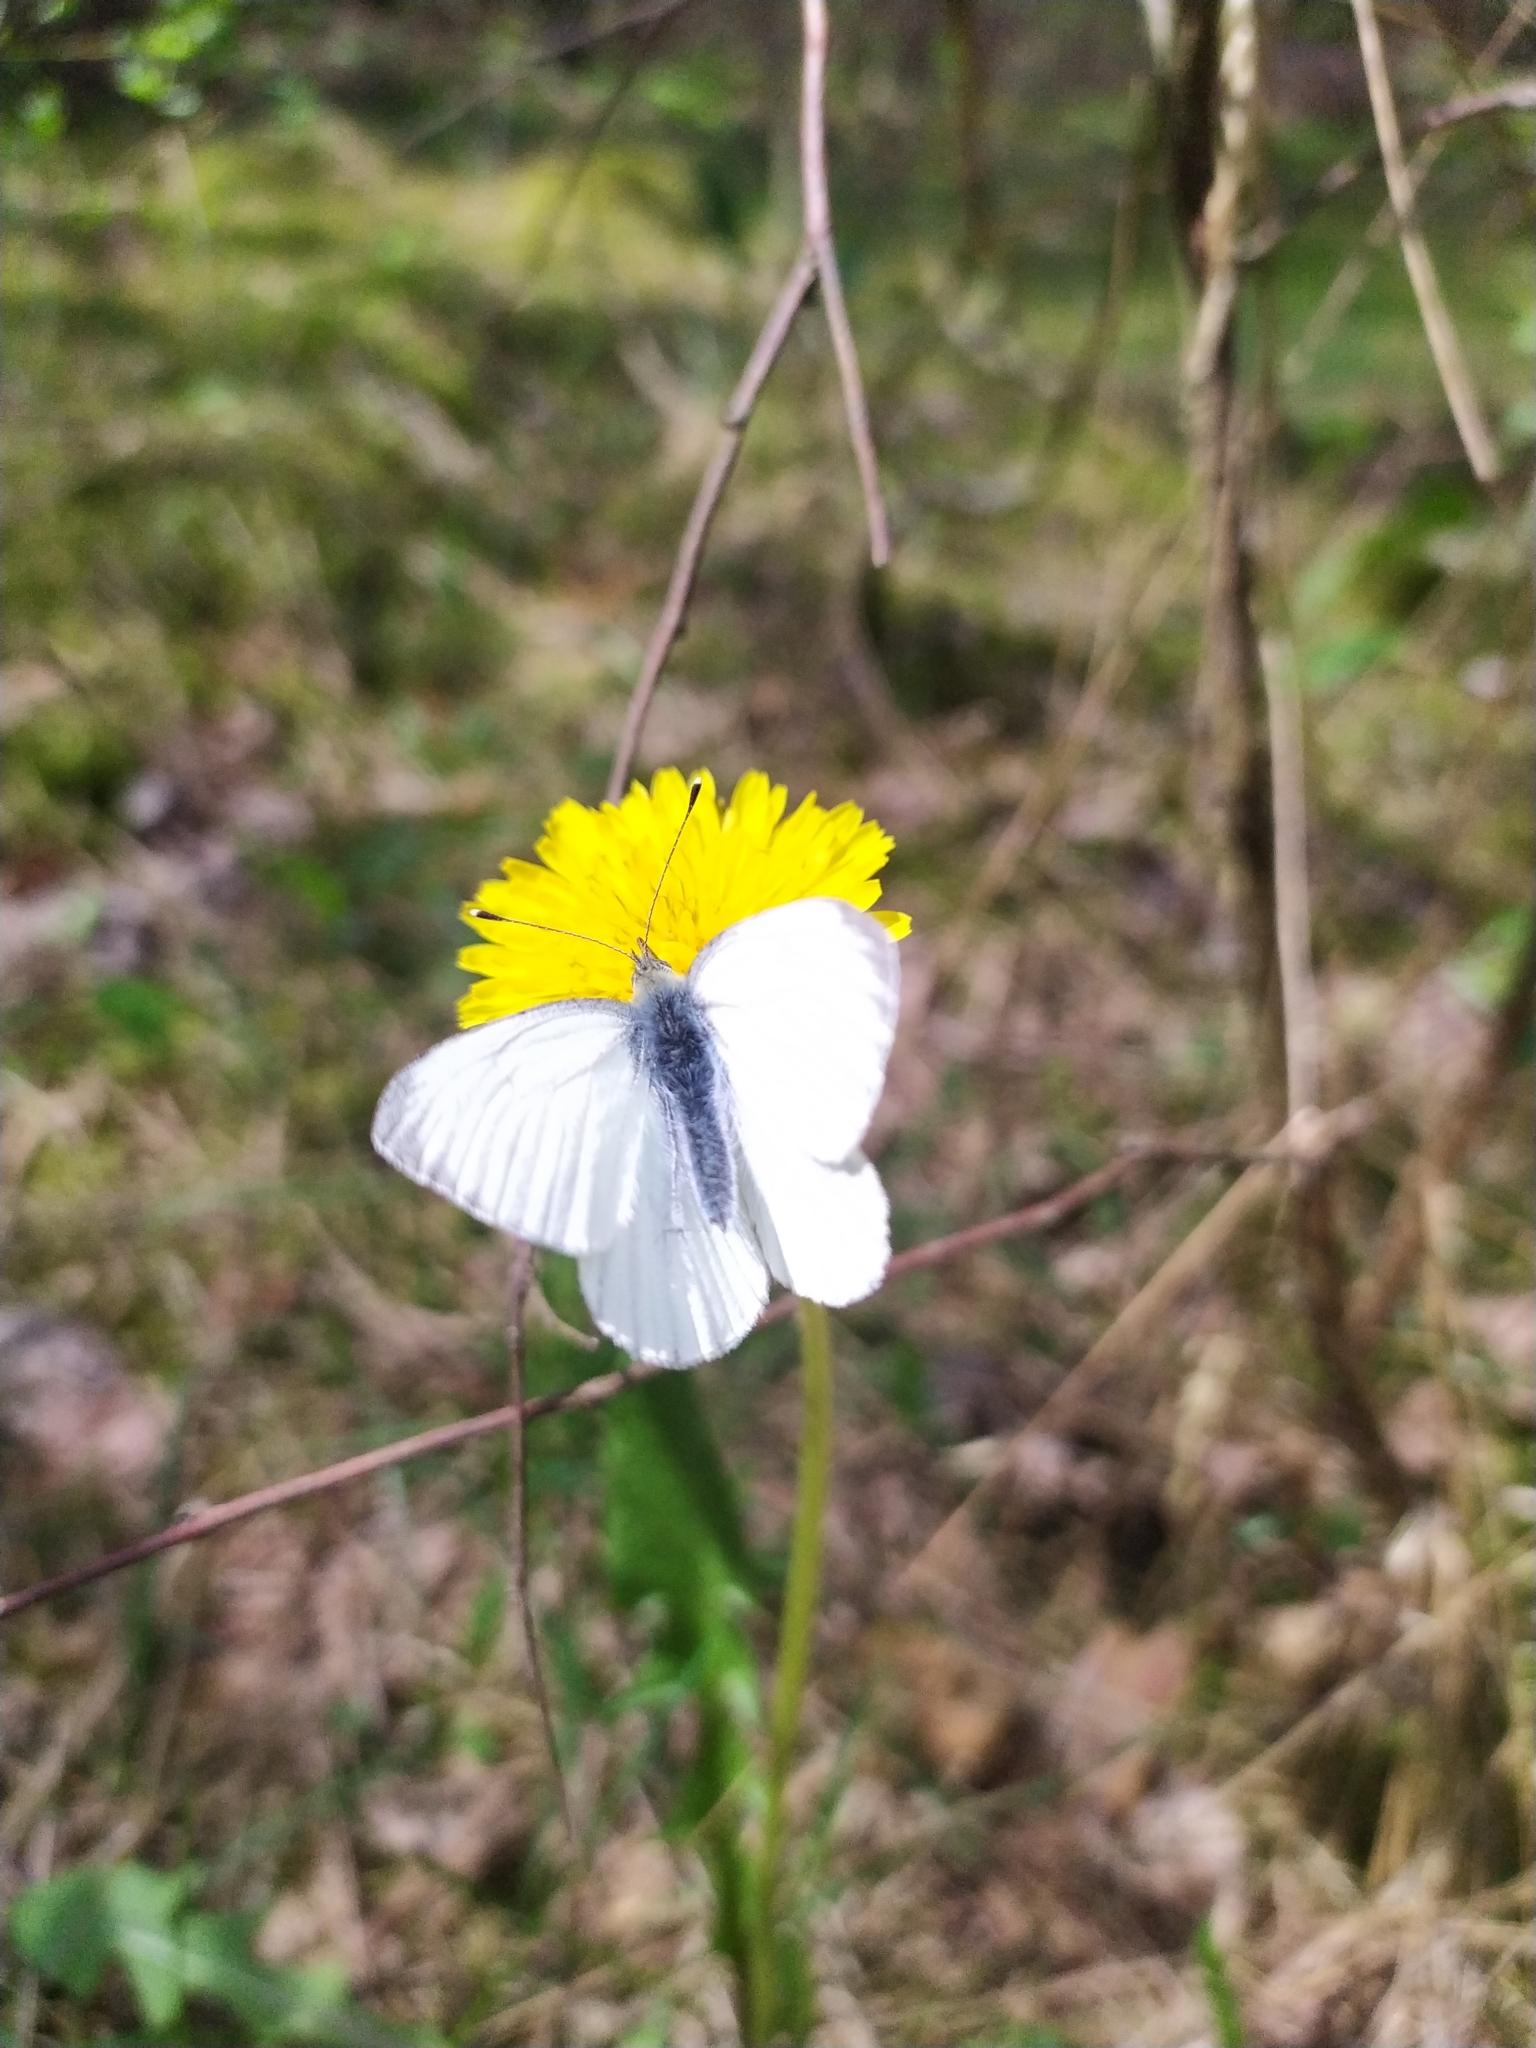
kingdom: Animalia
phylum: Arthropoda
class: Insecta
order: Lepidoptera
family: Pieridae
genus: Pieris
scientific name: Pieris napi
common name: Green-veined white
